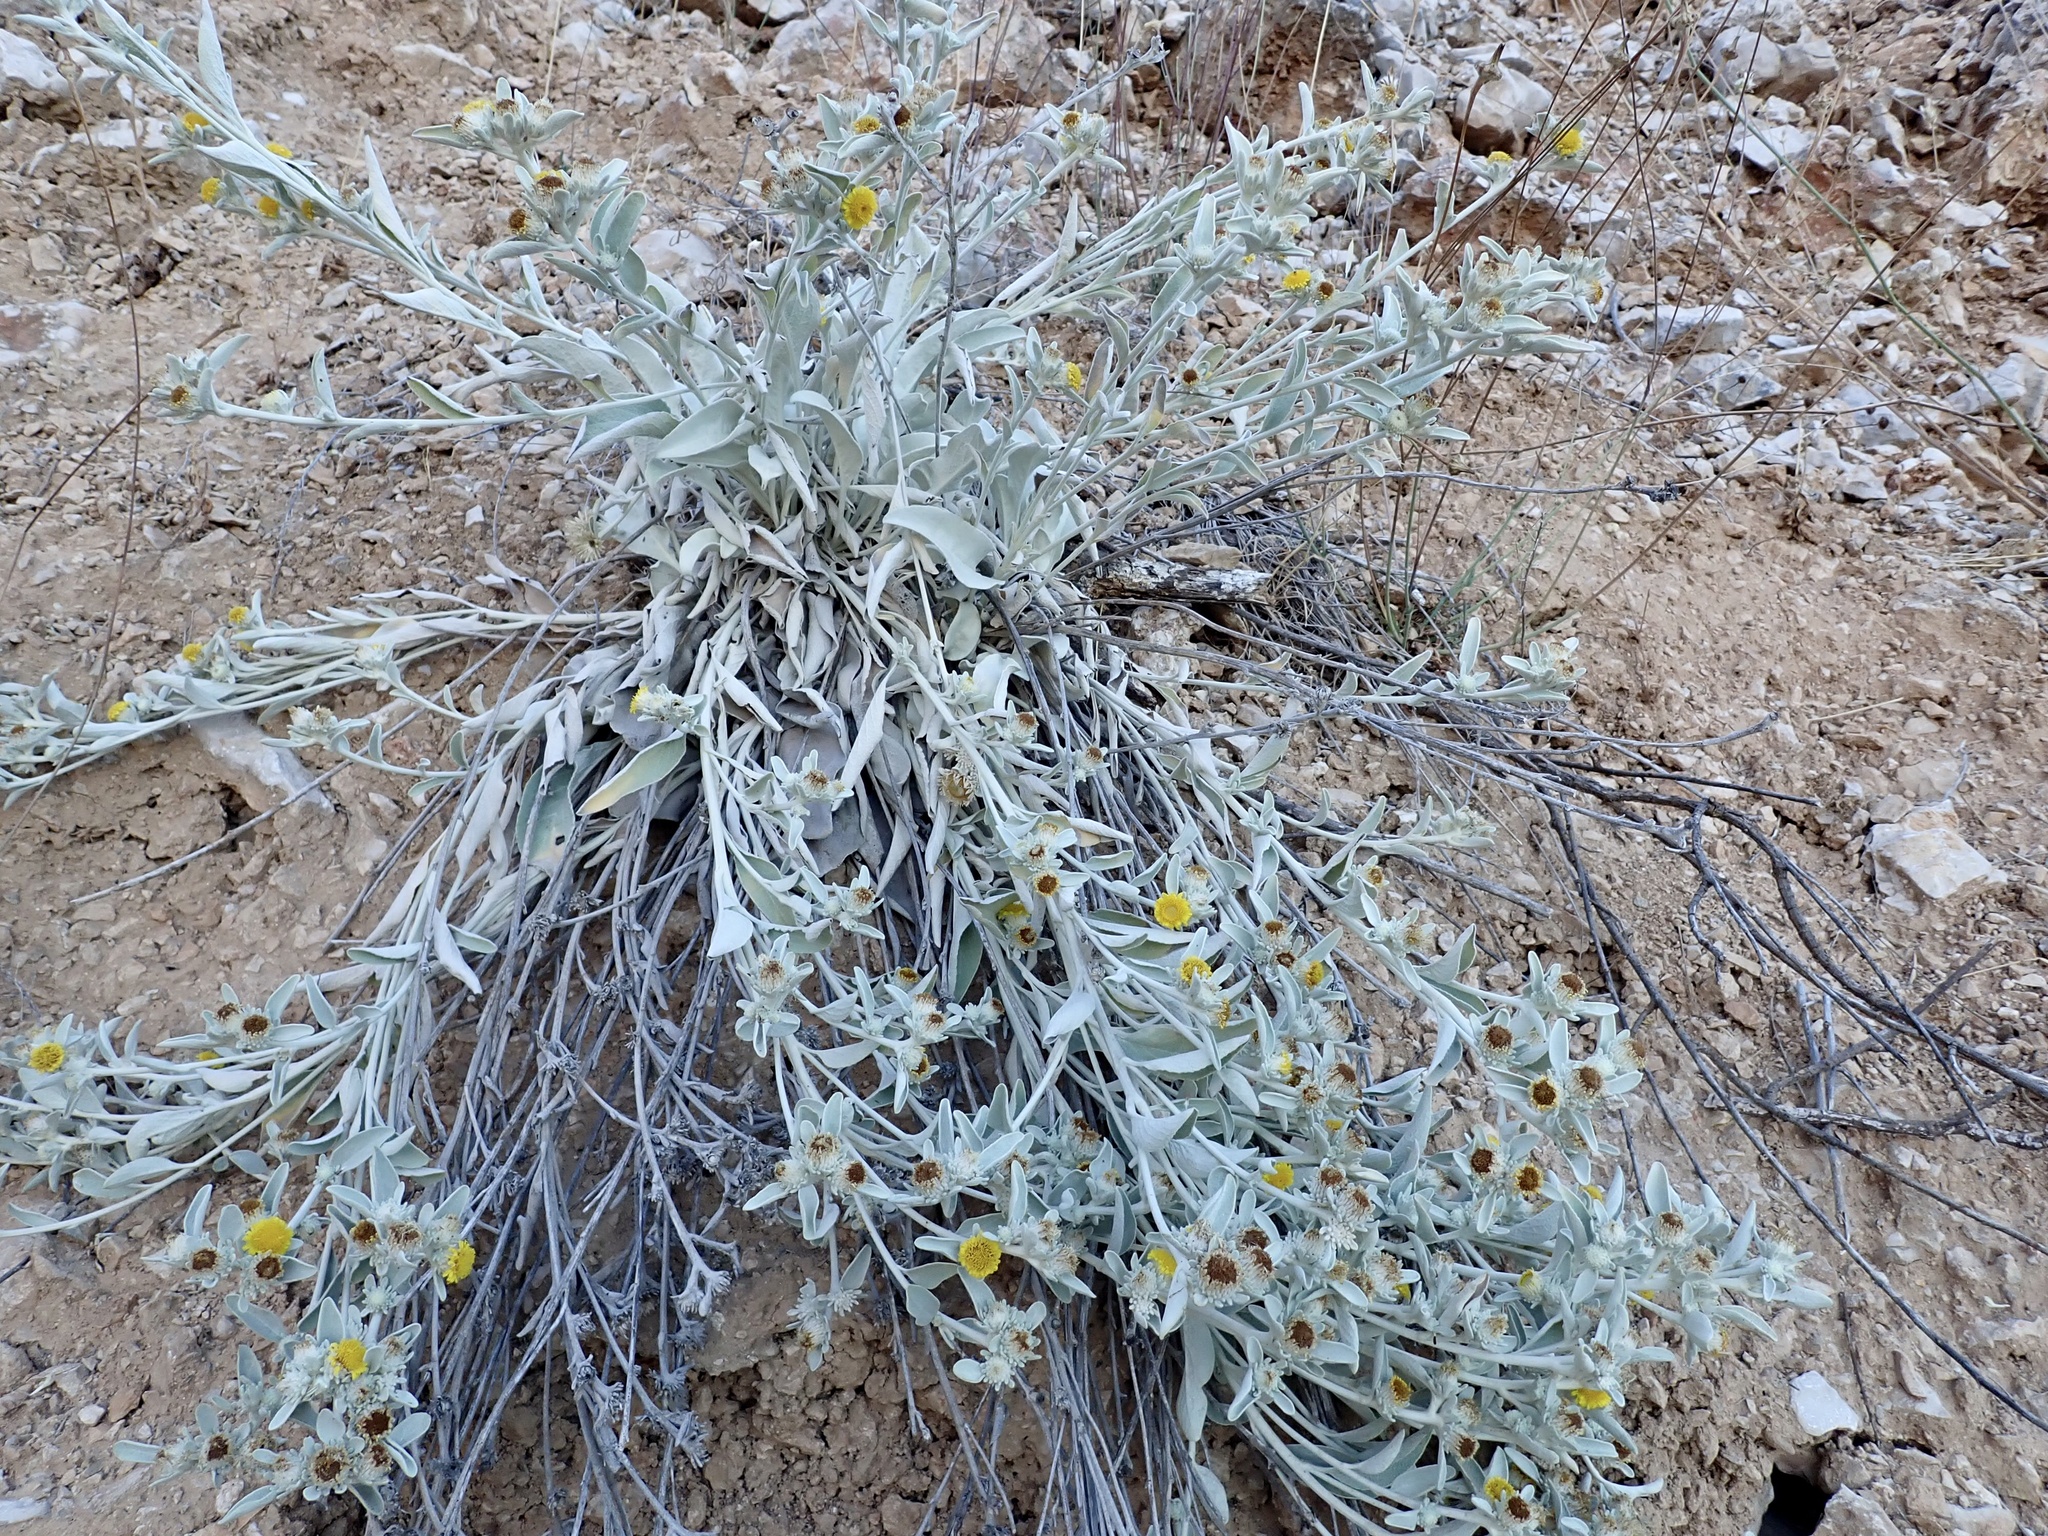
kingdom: Plantae
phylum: Tracheophyta
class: Magnoliopsida
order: Asterales
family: Asteraceae
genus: Pentanema
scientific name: Pentanema verbascifolium
